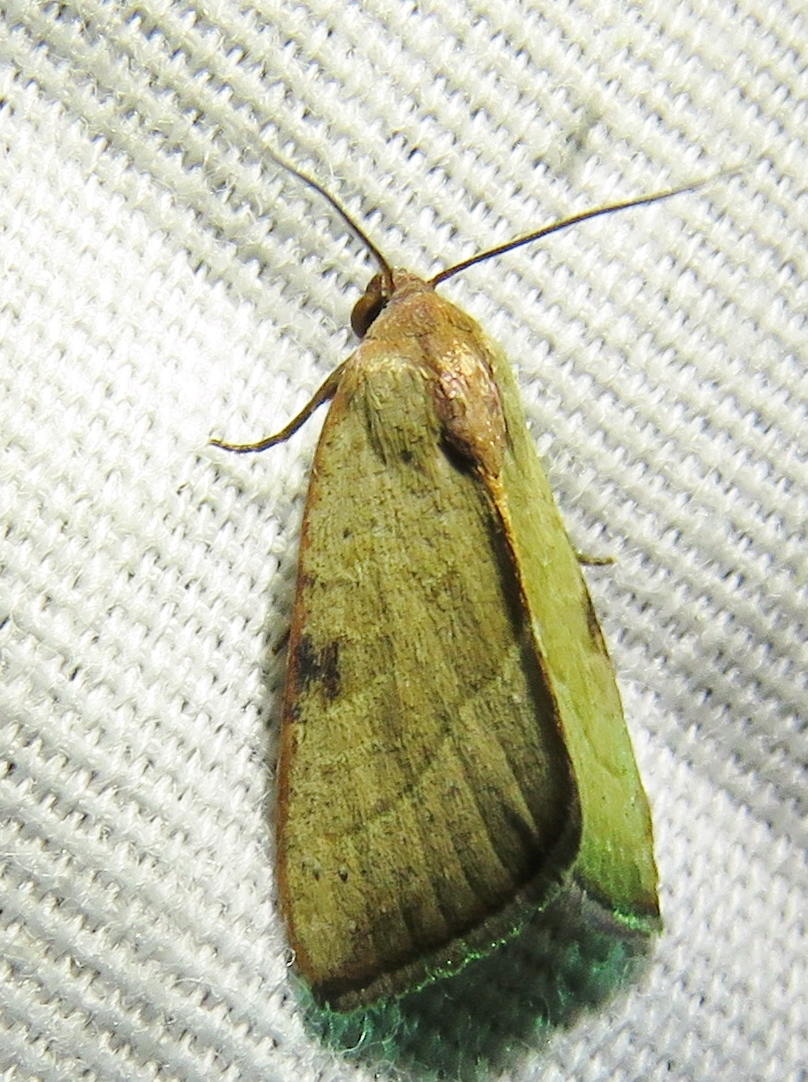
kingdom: Animalia
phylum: Arthropoda
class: Insecta
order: Lepidoptera
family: Noctuidae
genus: Galgula
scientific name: Galgula partita
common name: Wedgeling
